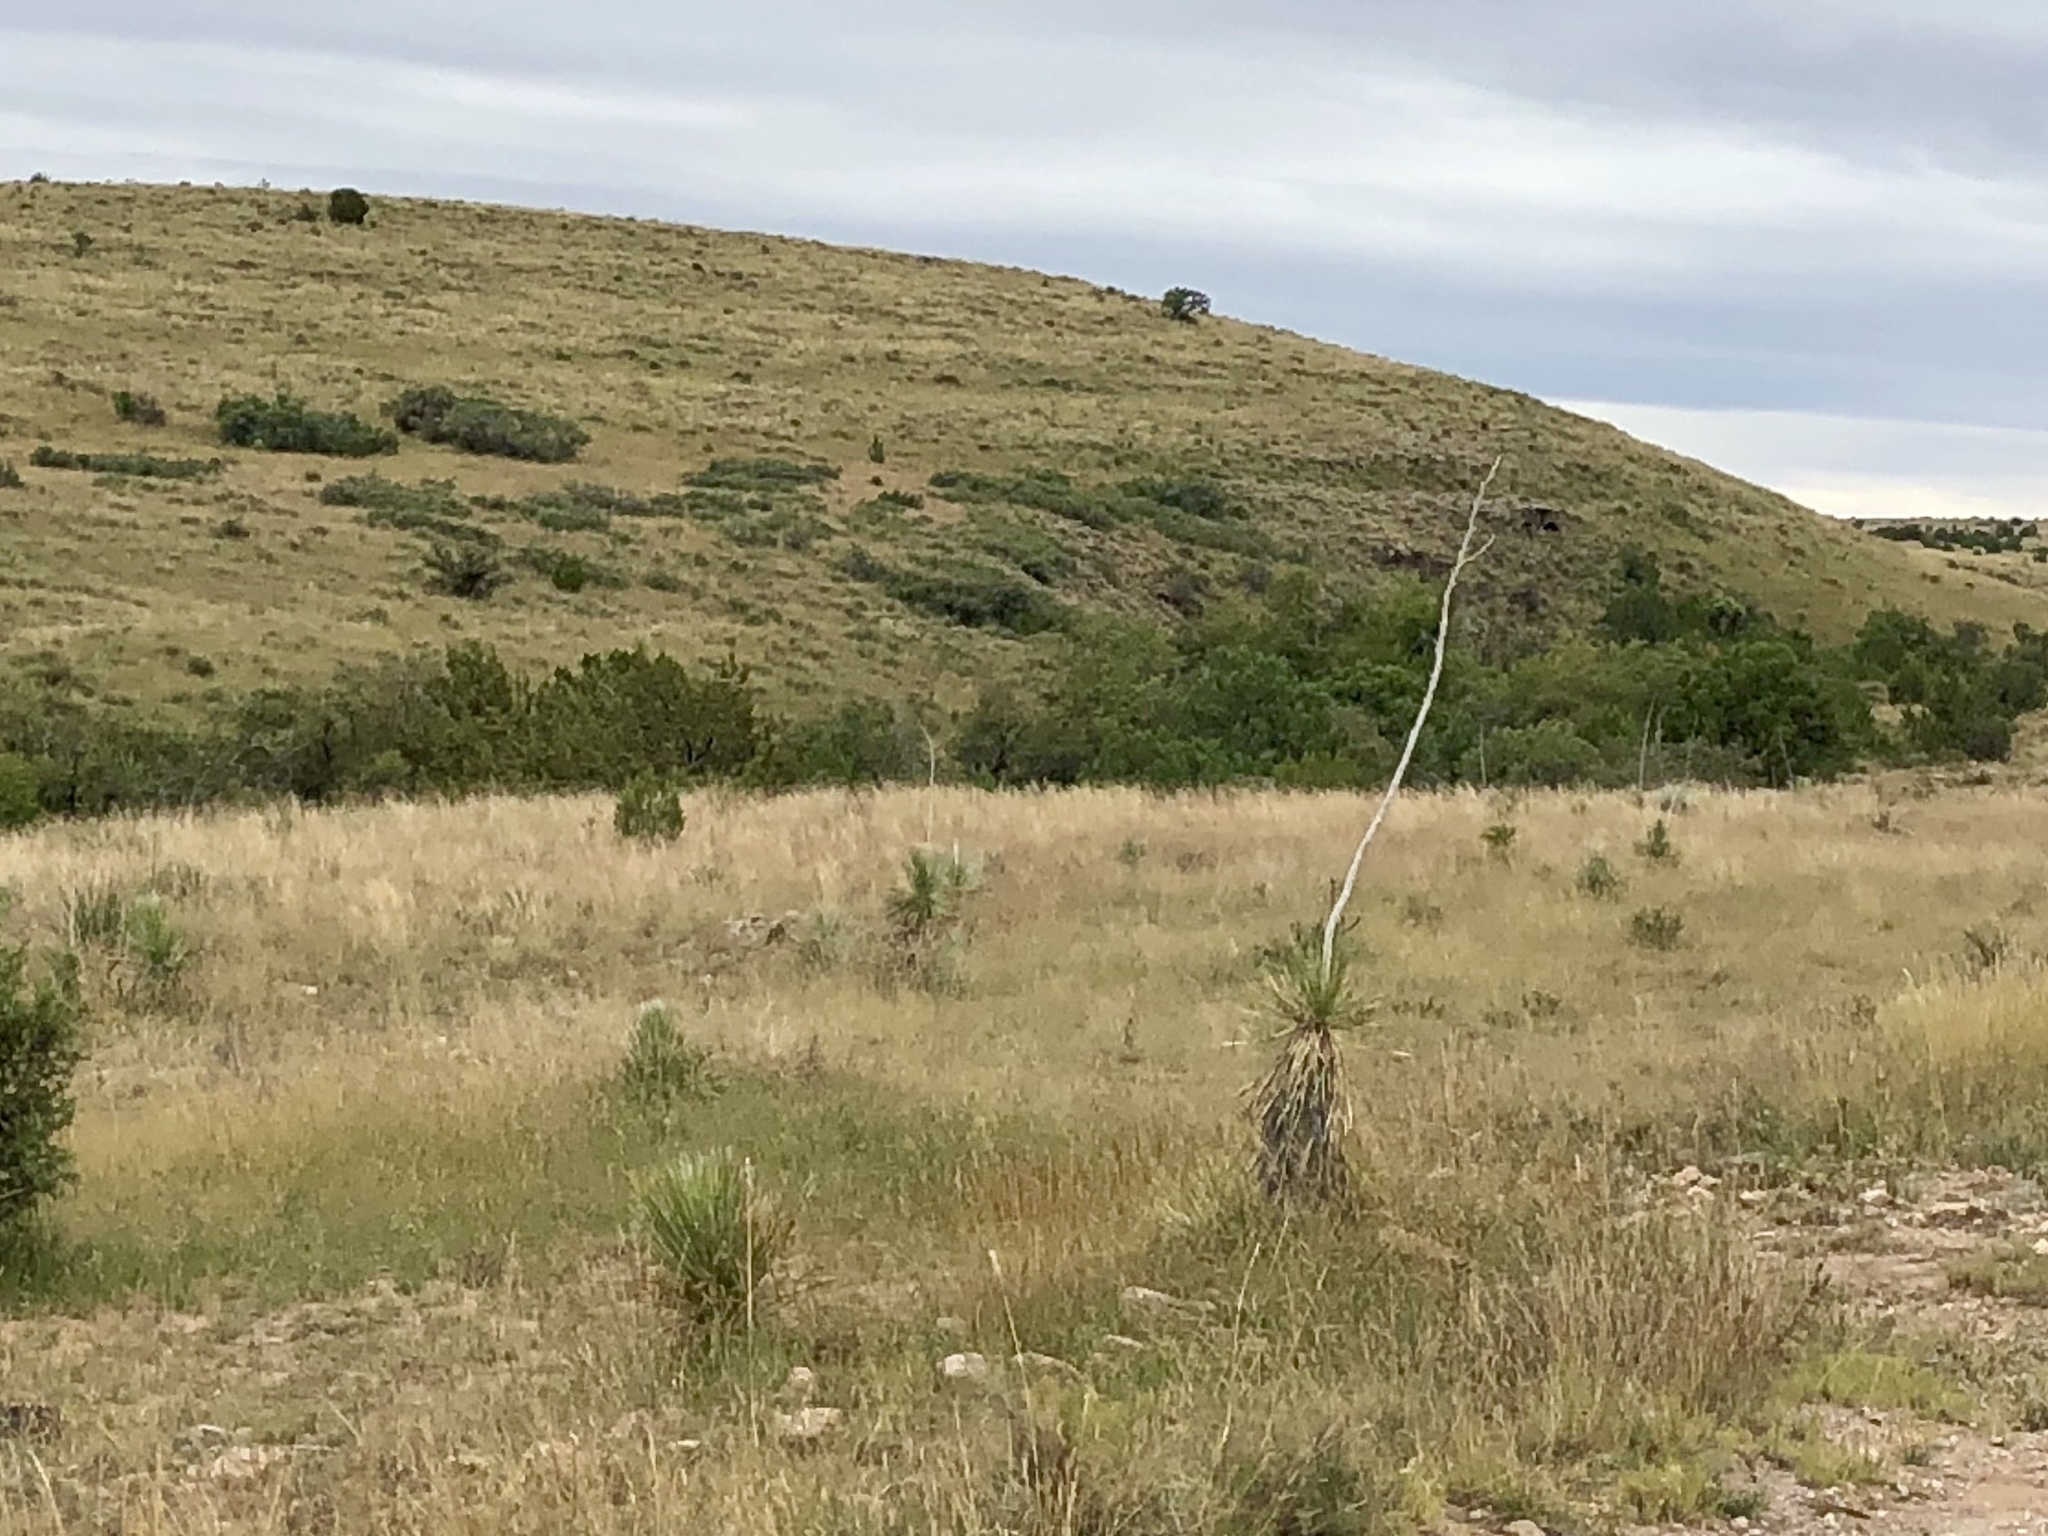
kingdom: Plantae
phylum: Tracheophyta
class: Liliopsida
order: Asparagales
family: Asparagaceae
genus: Yucca
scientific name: Yucca elata
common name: Palmella
